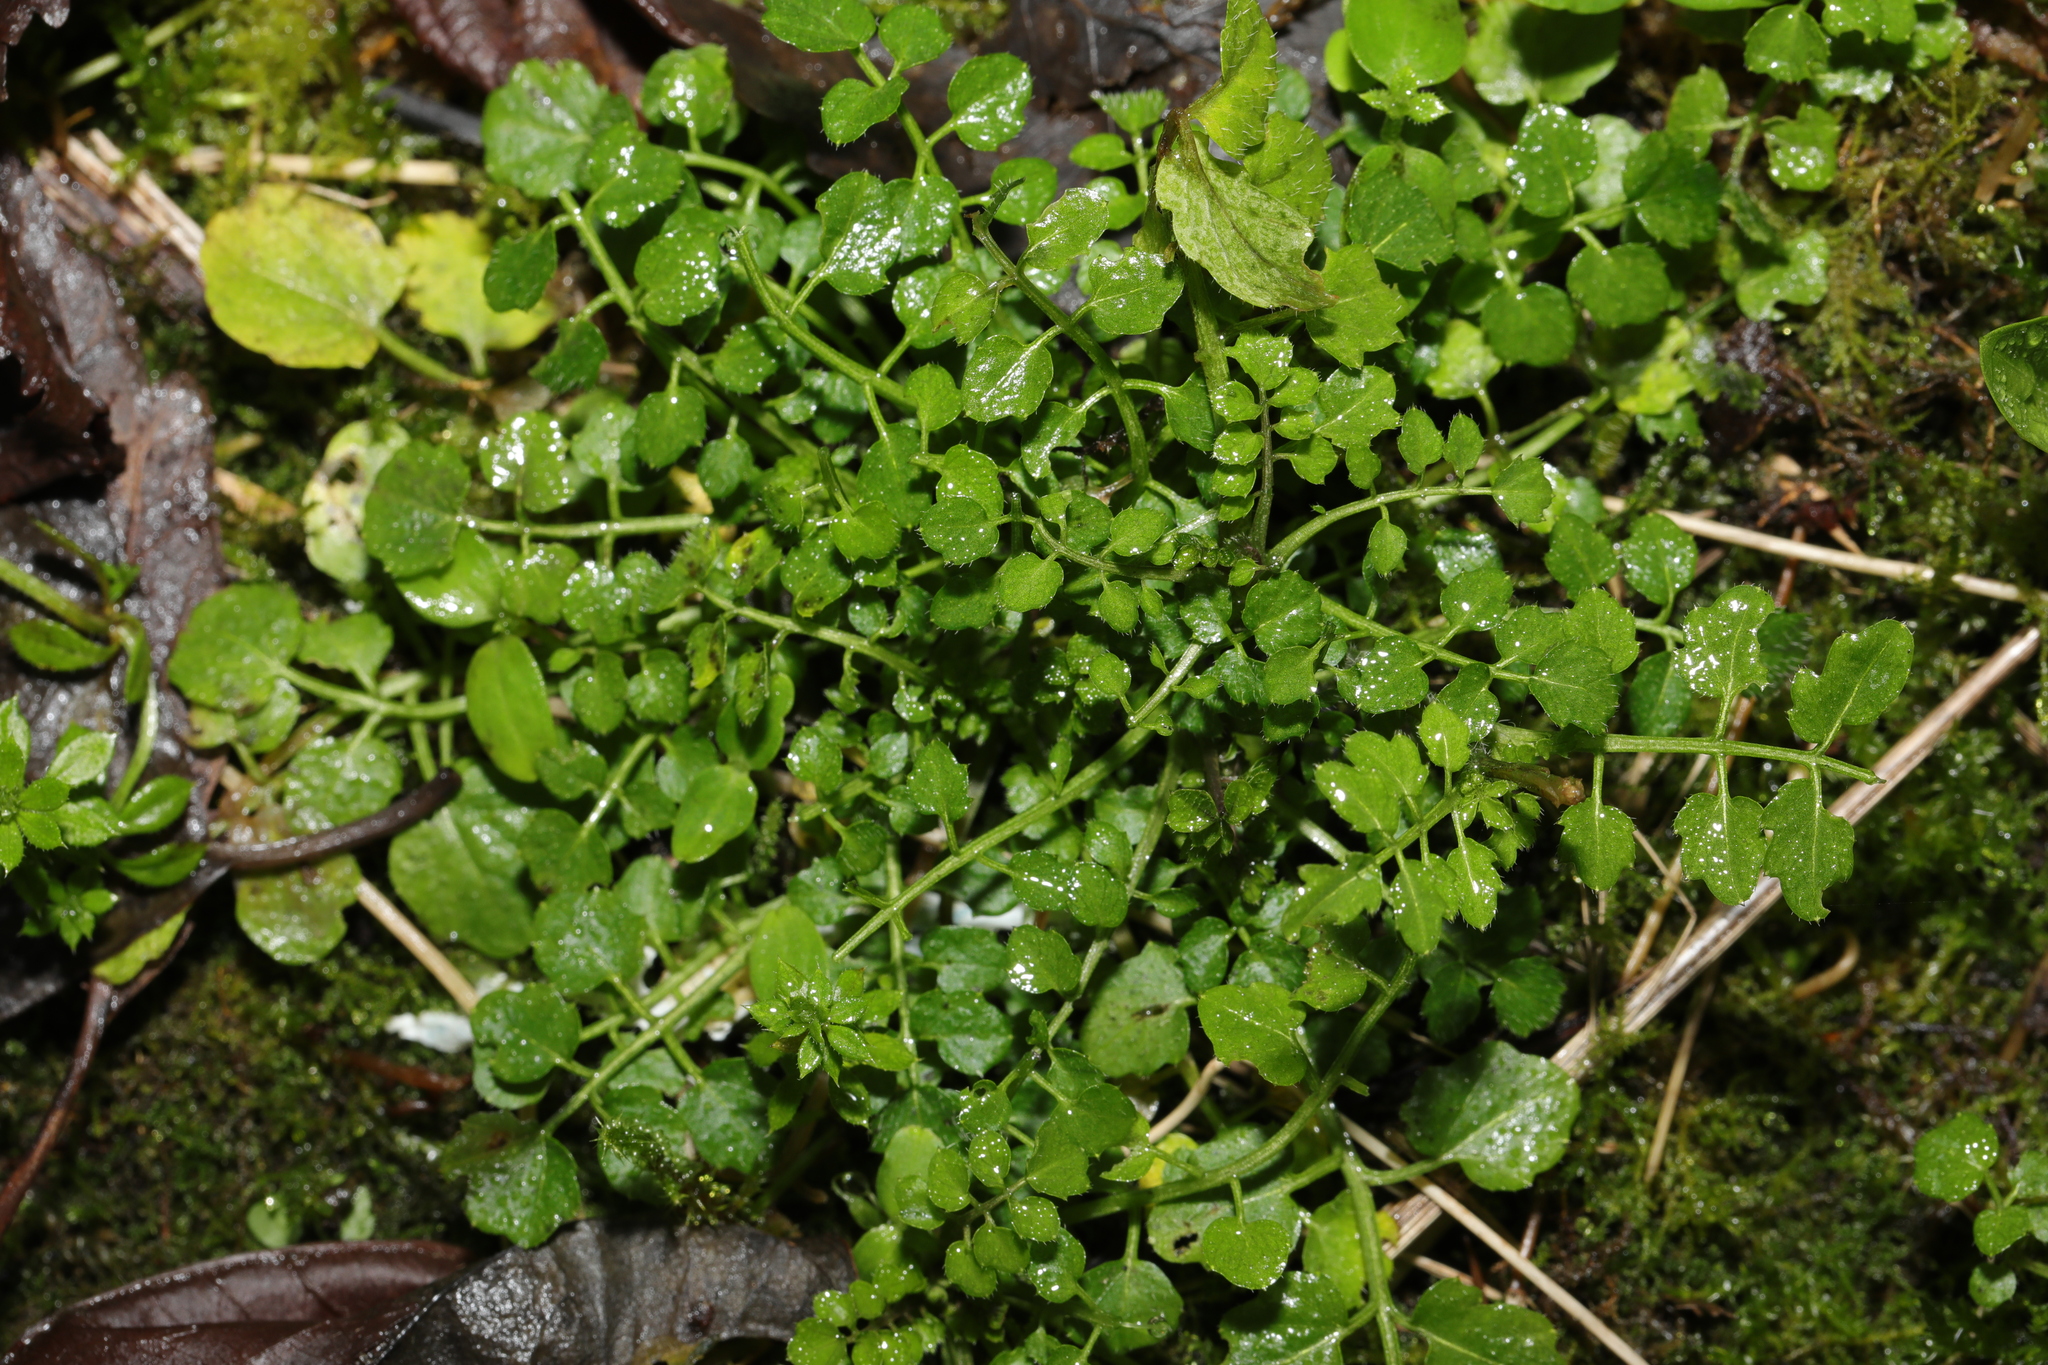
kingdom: Plantae
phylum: Tracheophyta
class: Magnoliopsida
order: Brassicales
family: Brassicaceae
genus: Cardamine
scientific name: Cardamine flexuosa
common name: Woodland bittercress
